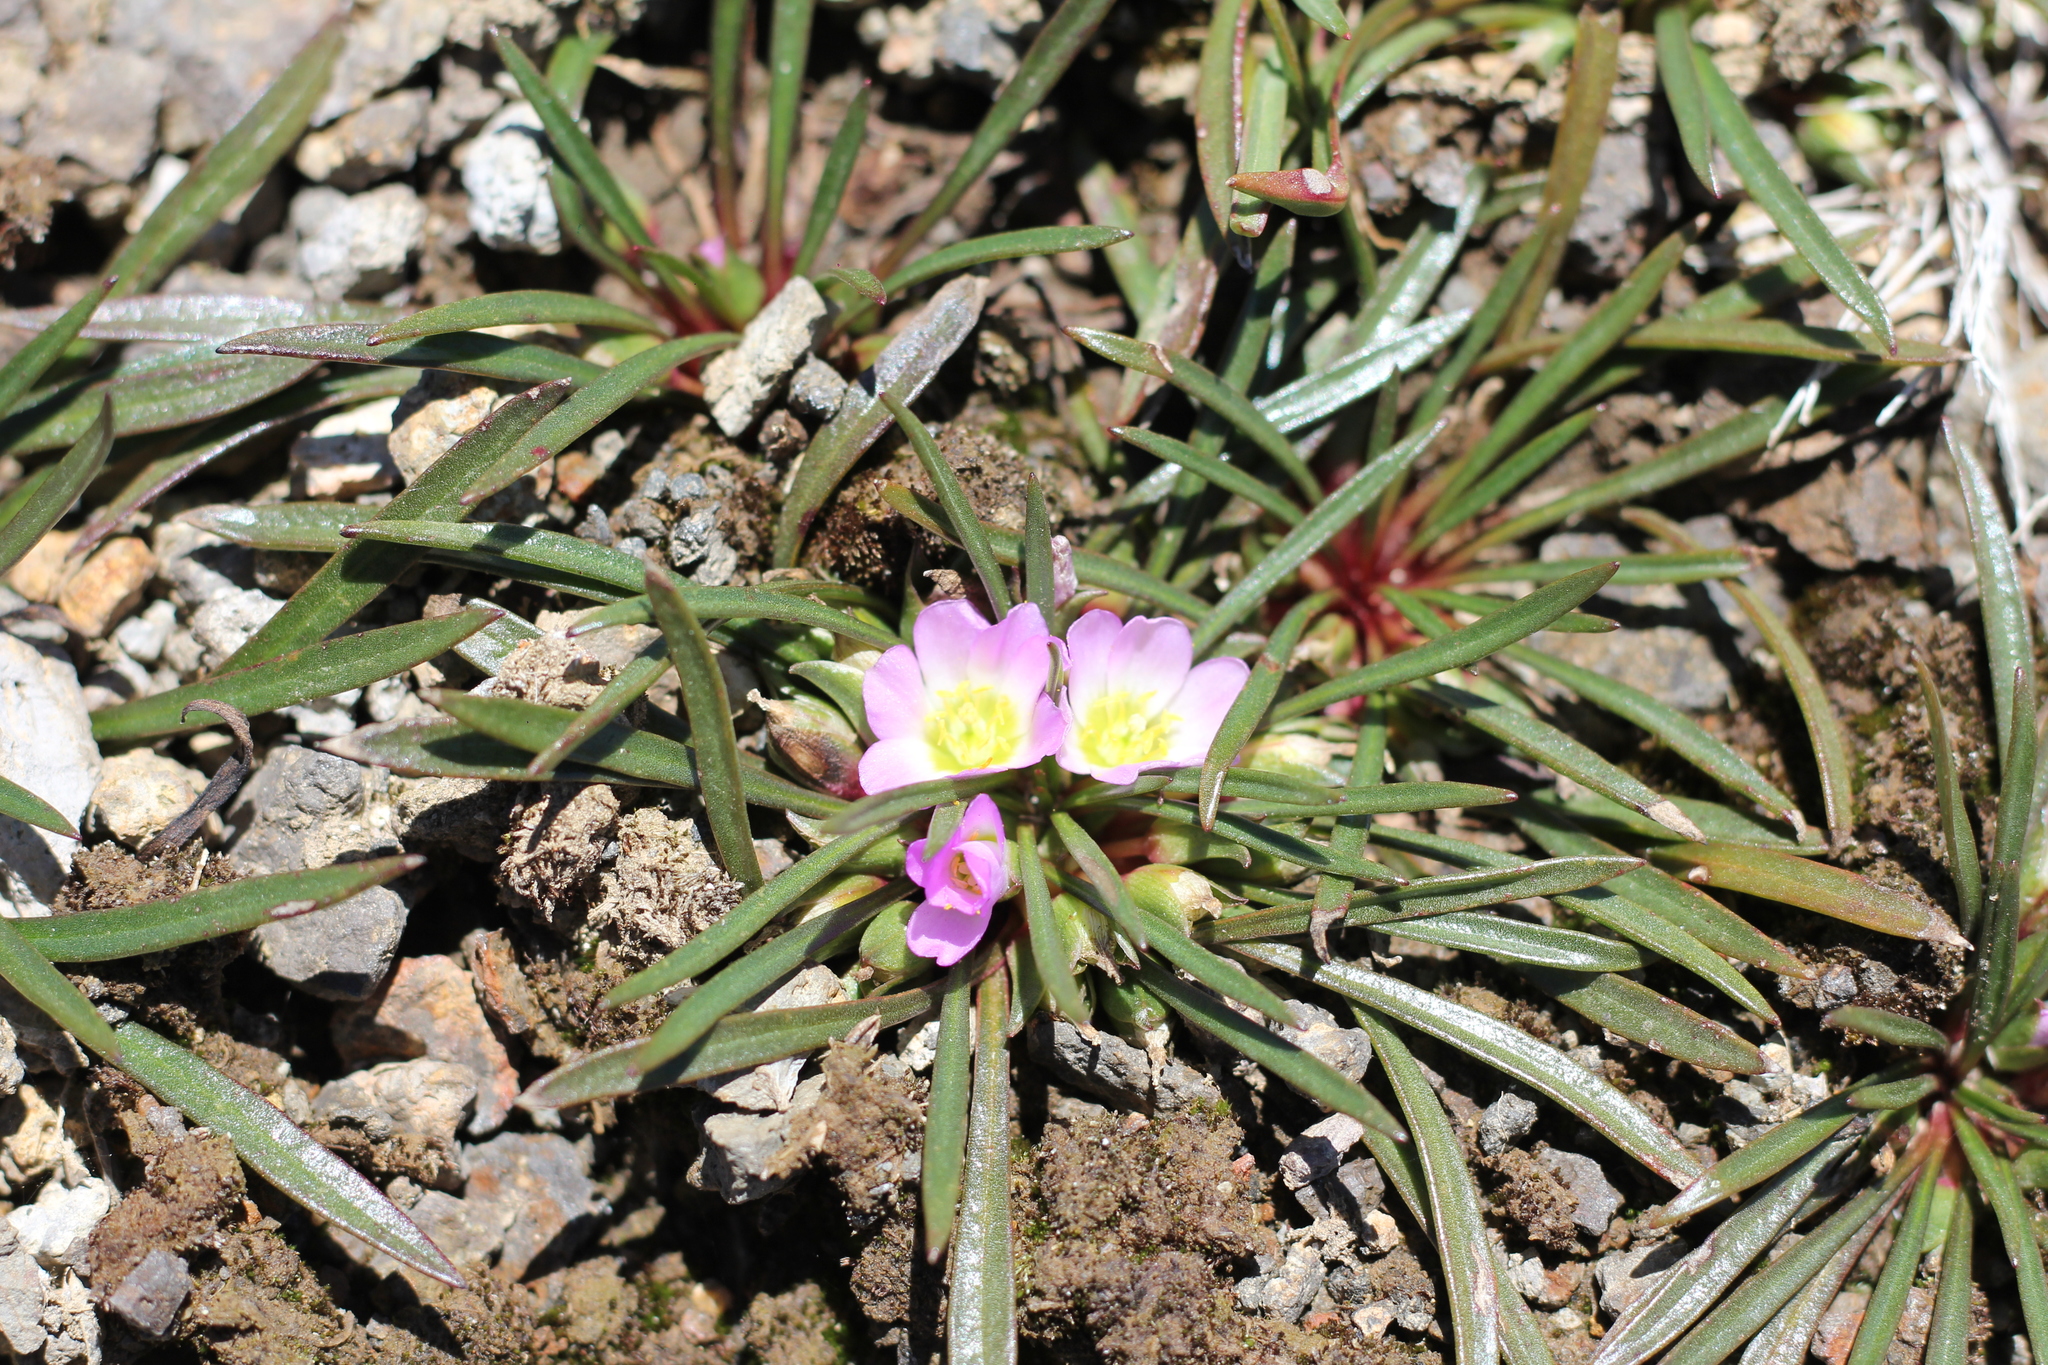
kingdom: Plantae
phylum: Tracheophyta
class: Magnoliopsida
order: Caryophyllales
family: Montiaceae
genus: Calandrinia
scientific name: Calandrinia colchaguensis
